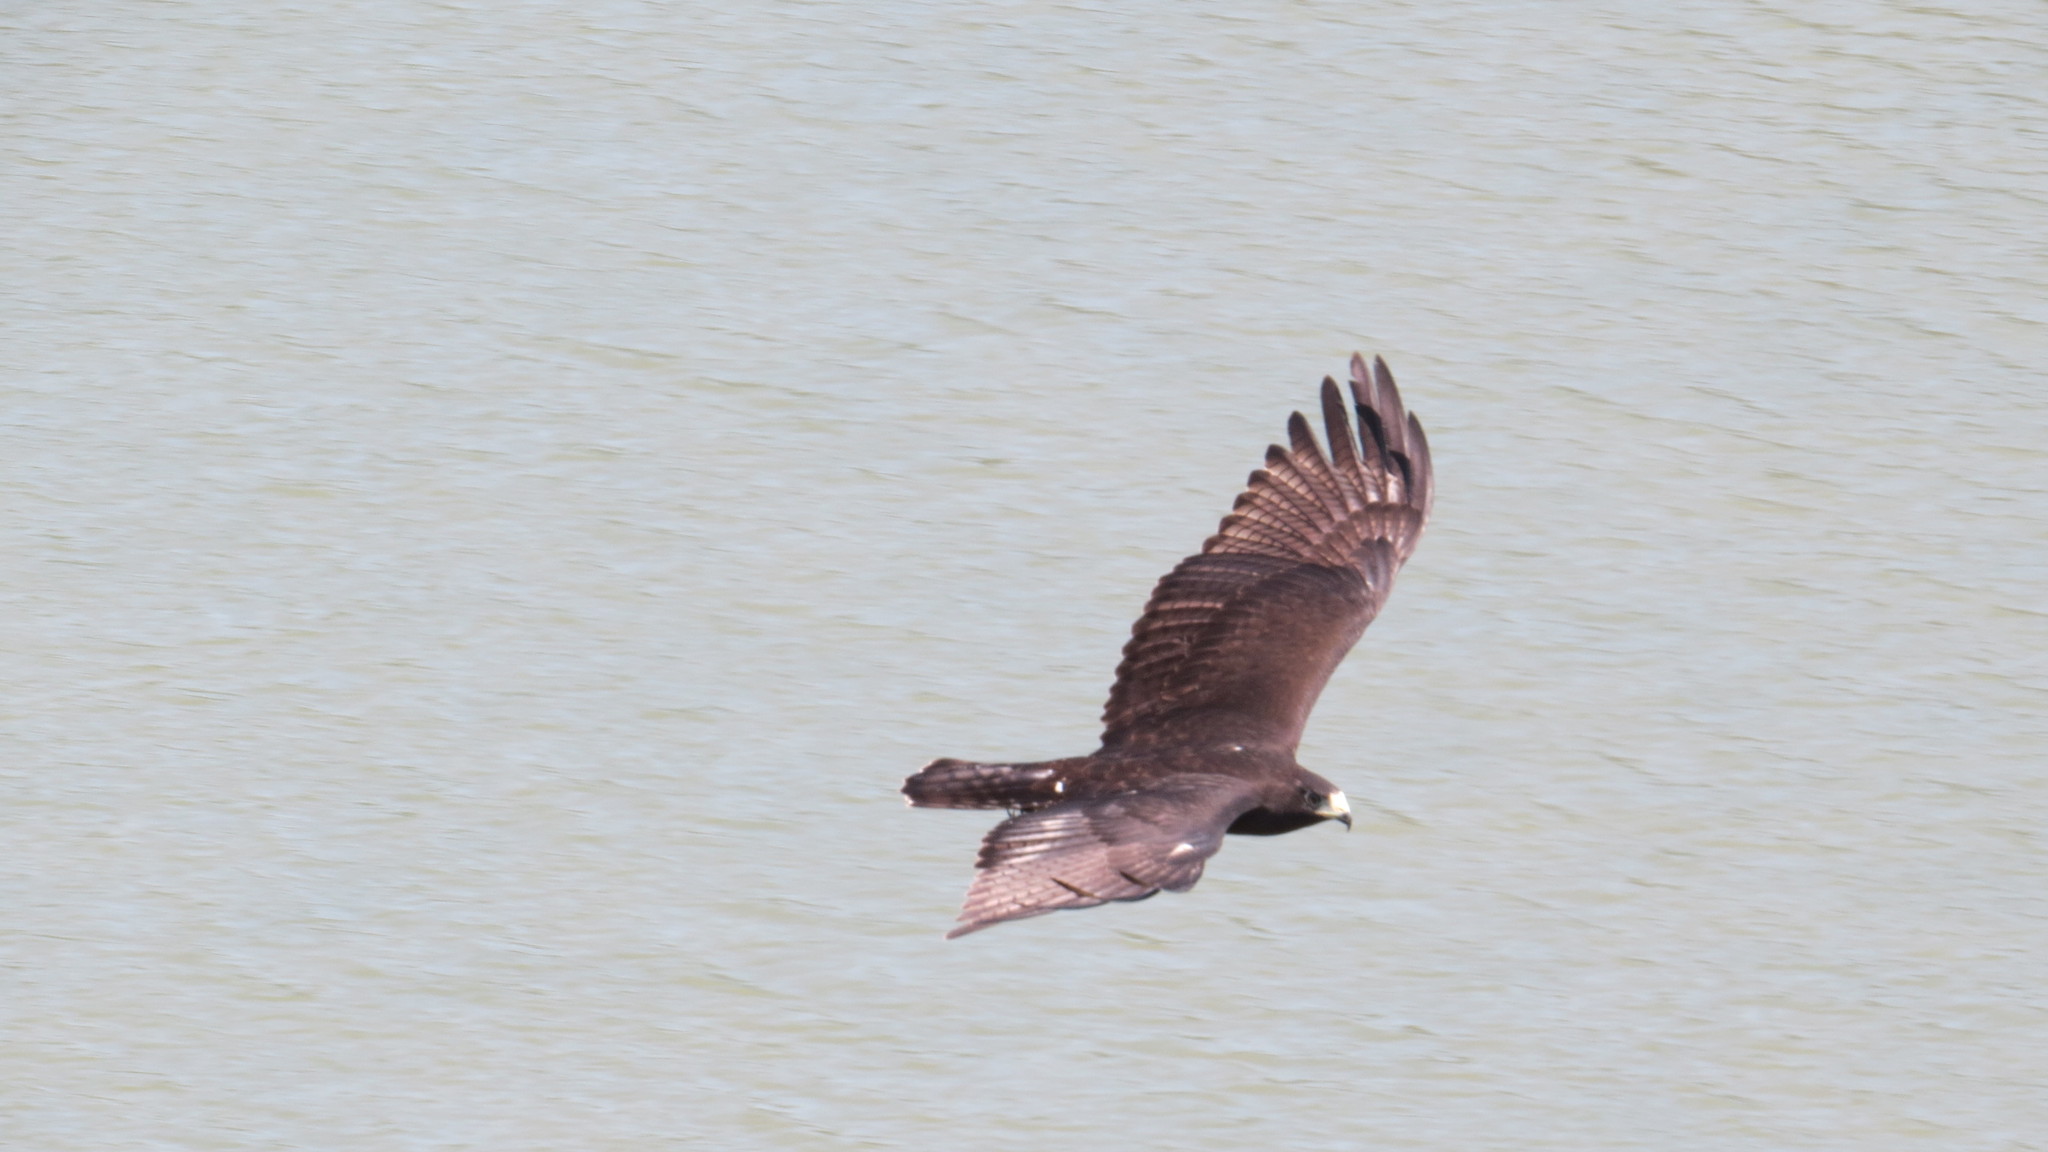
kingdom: Animalia
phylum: Chordata
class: Aves
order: Accipitriformes
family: Accipitridae
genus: Buteo
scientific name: Buteo albonotatus
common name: Zone-tailed hawk
